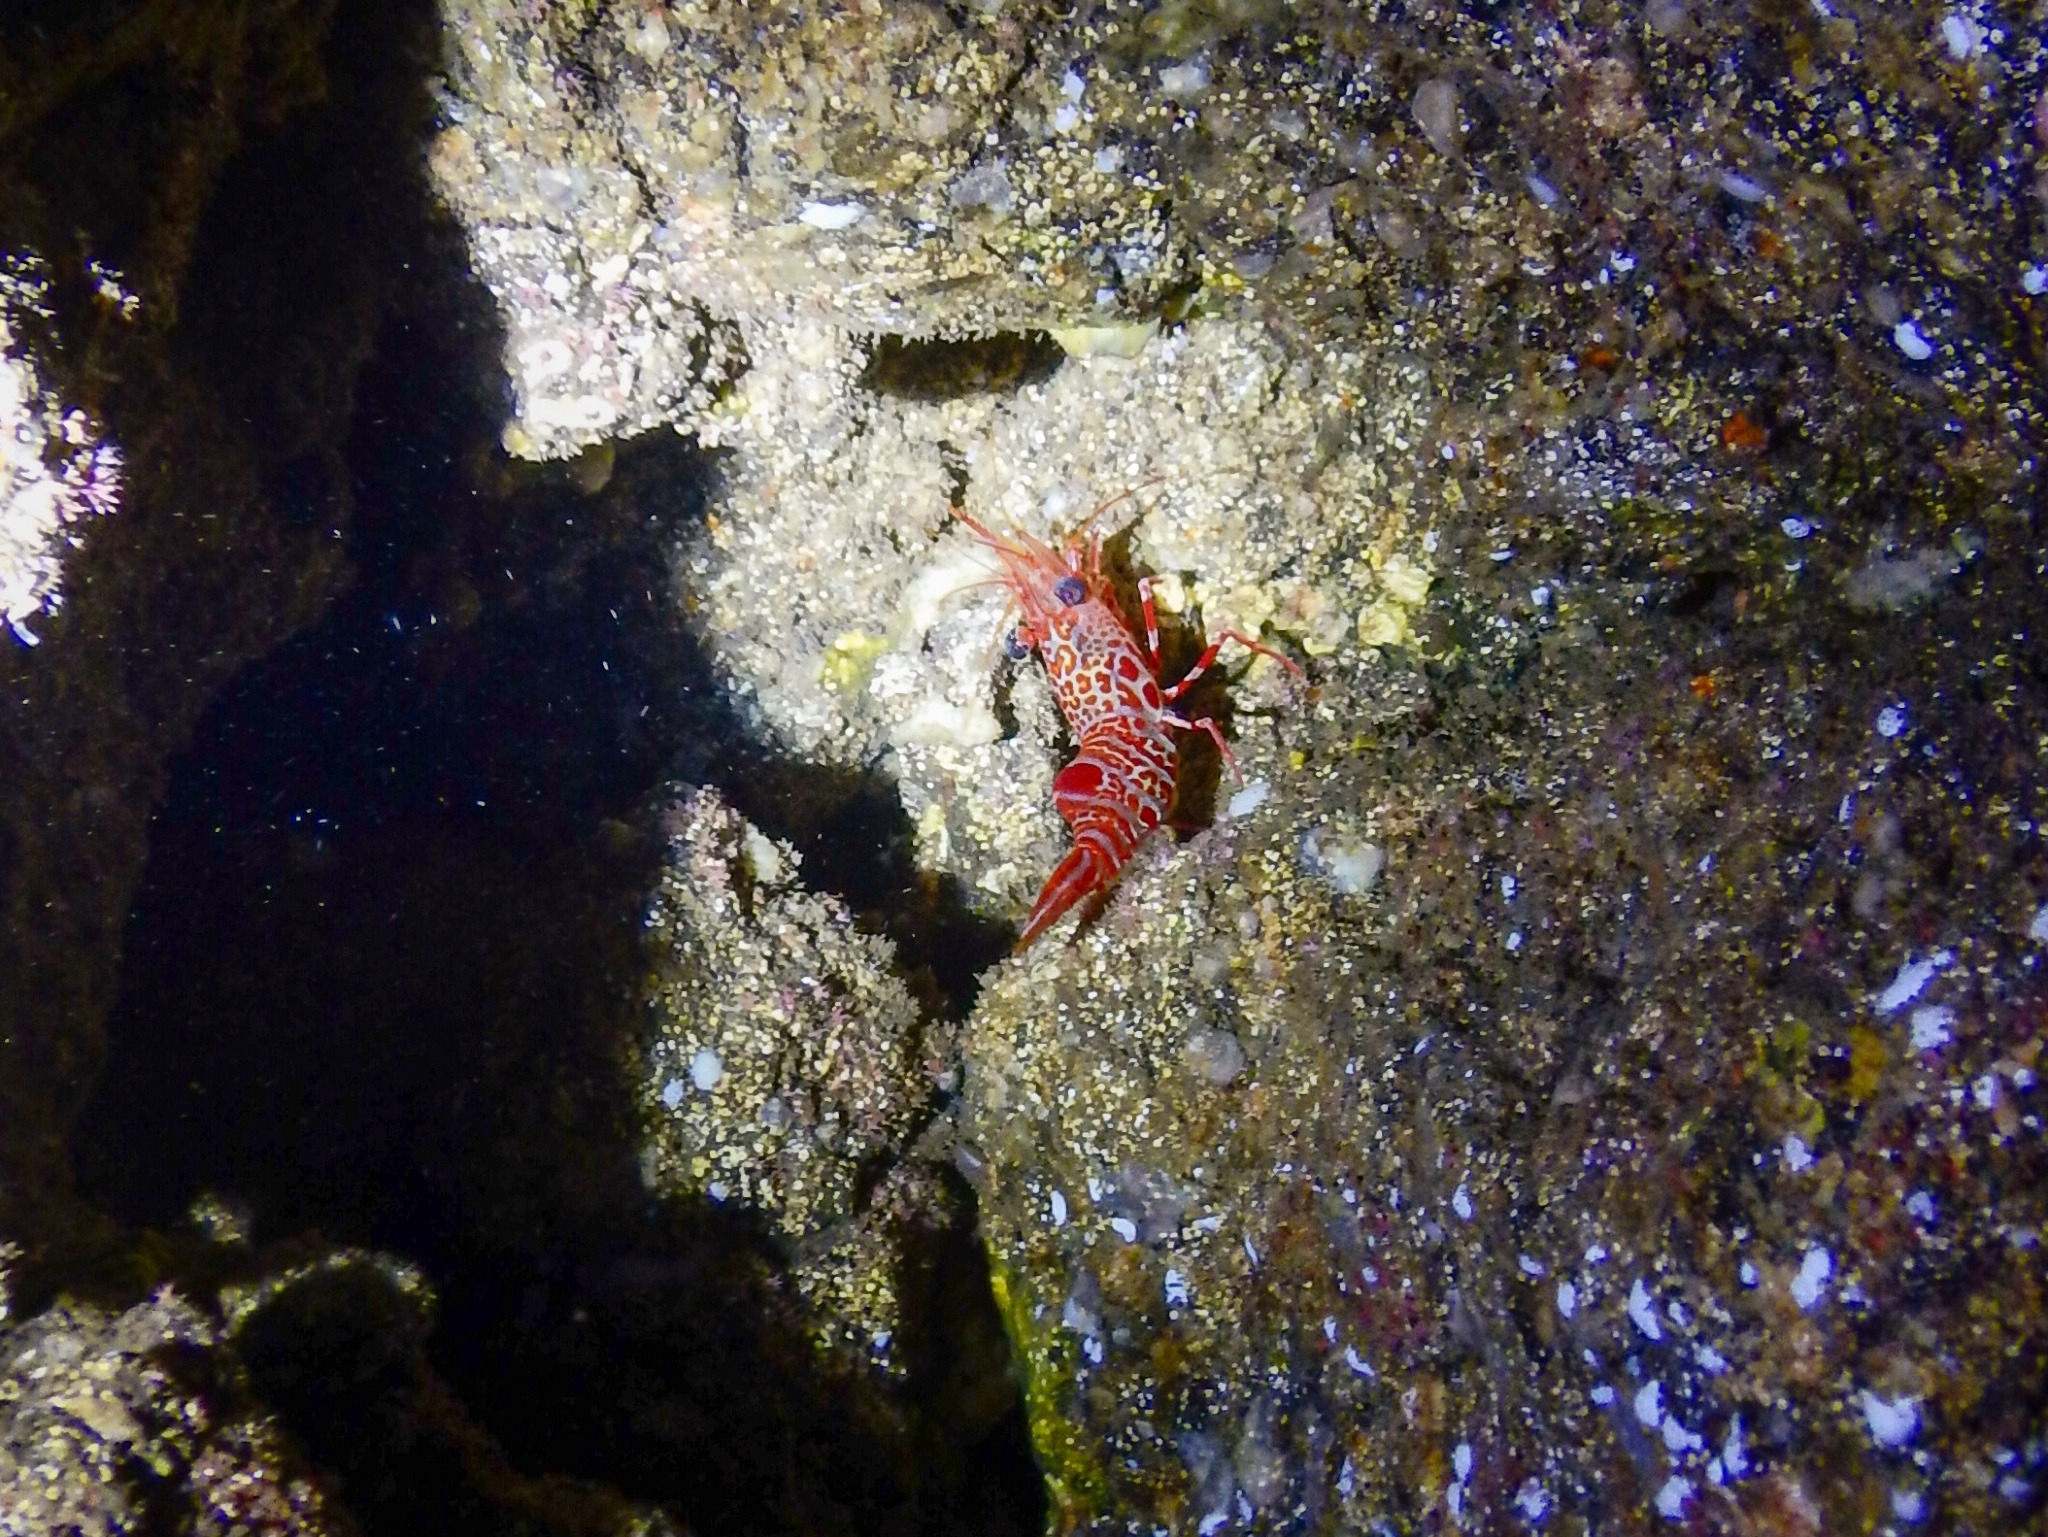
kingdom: Animalia
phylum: Arthropoda
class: Malacostraca
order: Decapoda
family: Rhynchocinetidae
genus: Cinetorhynchus
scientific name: Cinetorhynchus rigens
